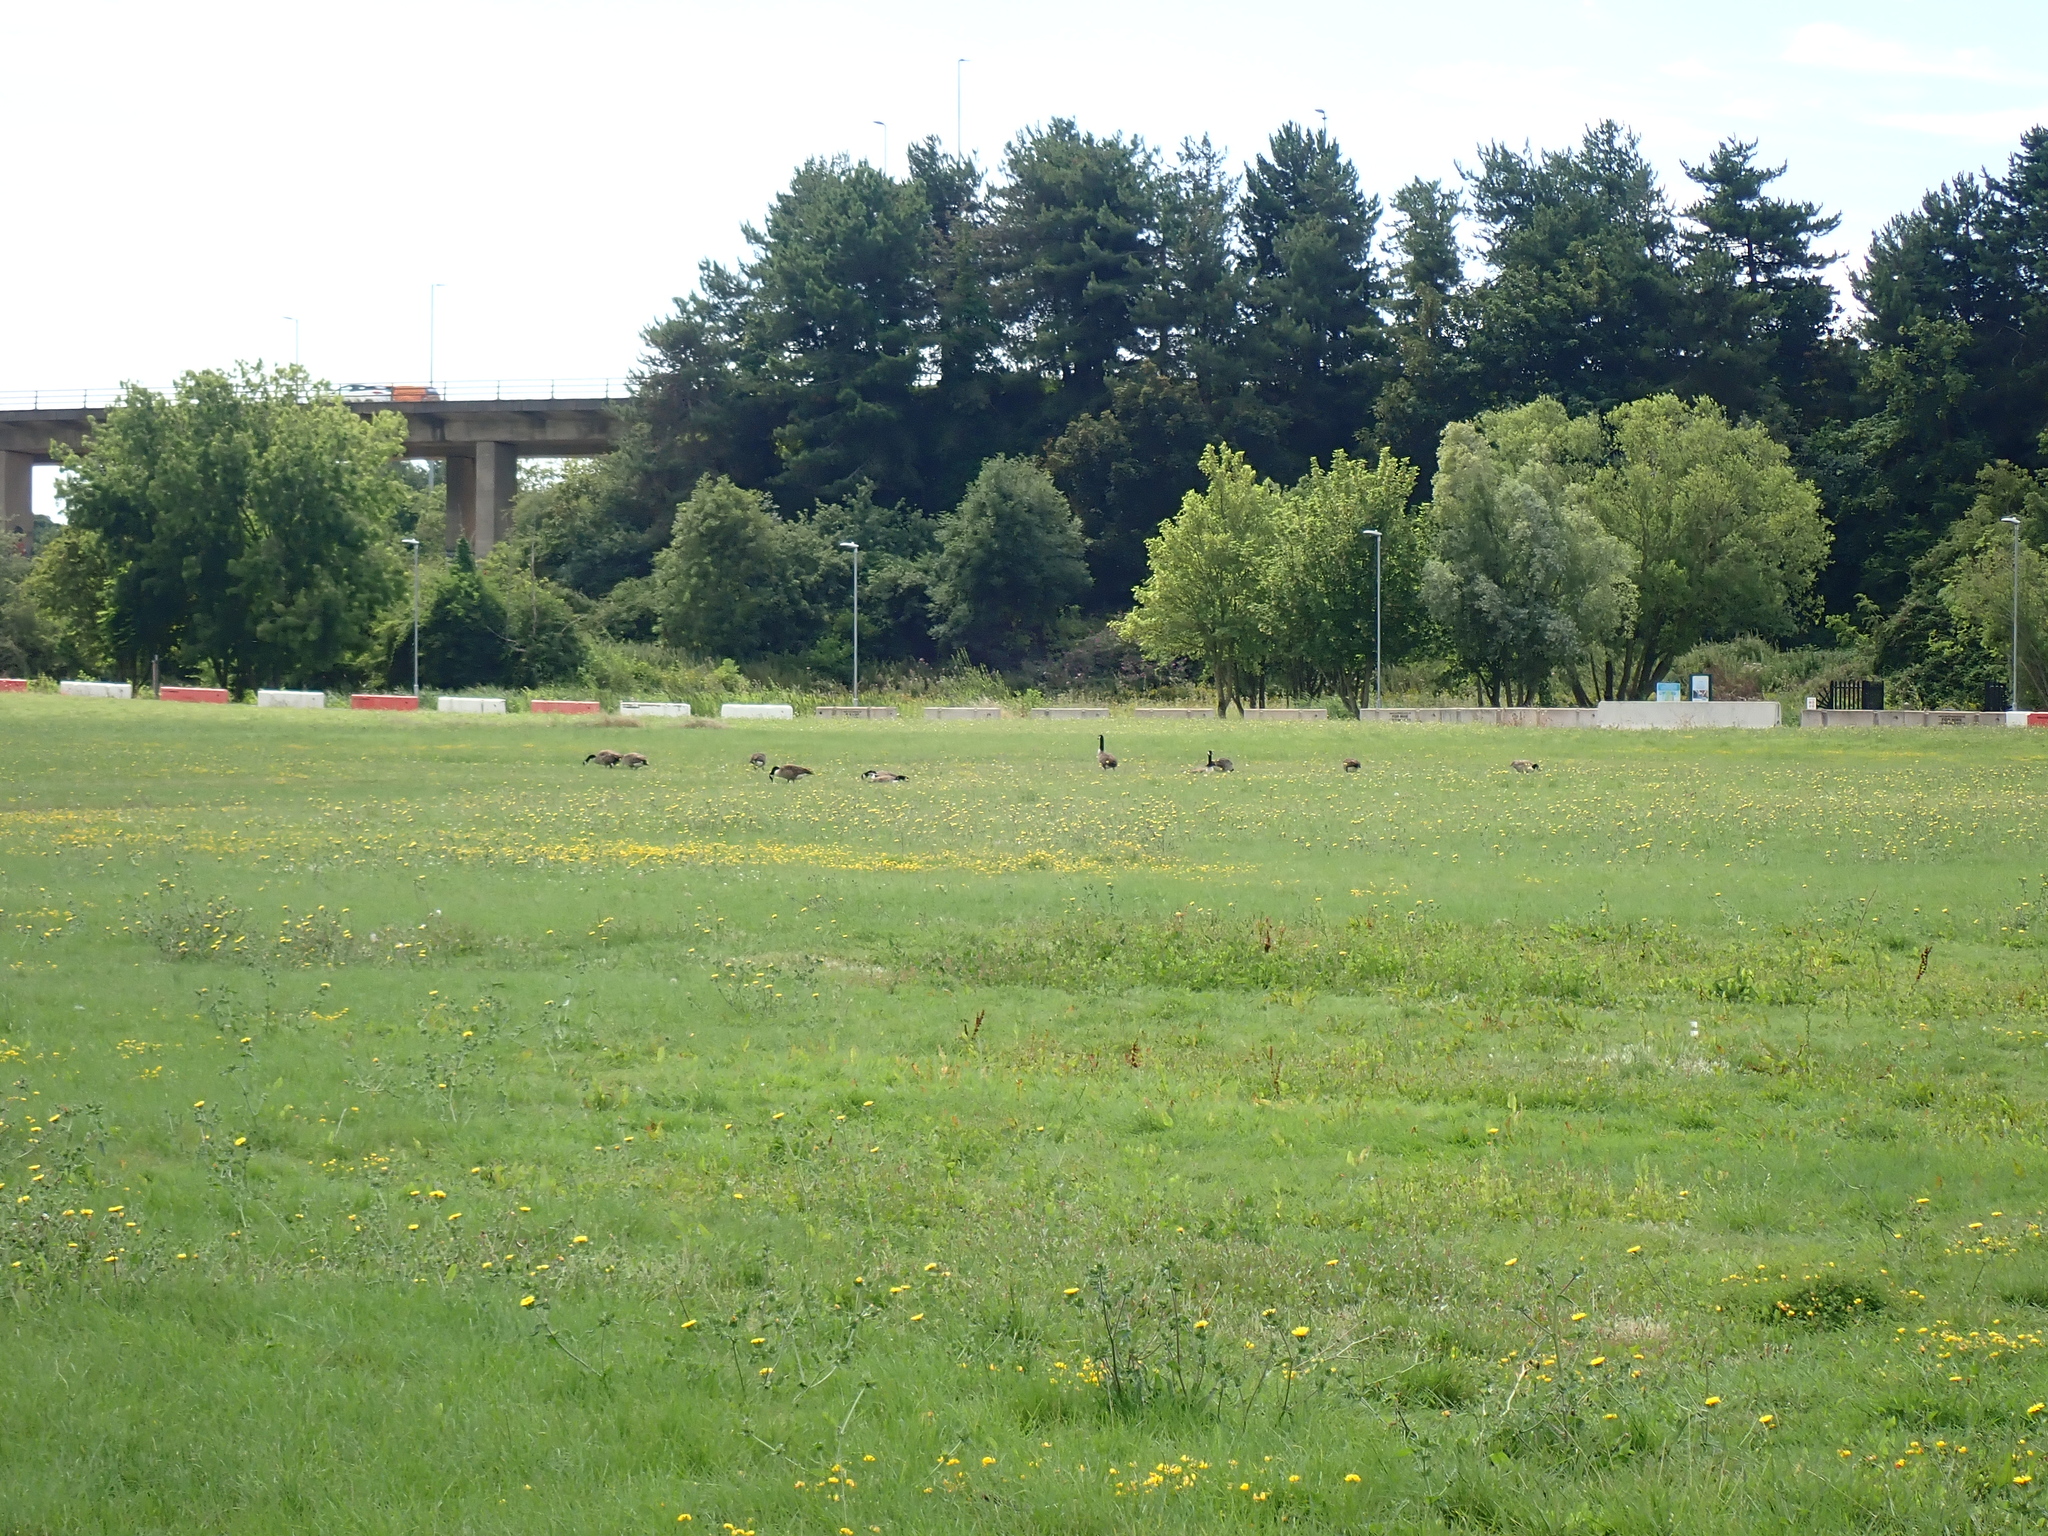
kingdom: Animalia
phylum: Chordata
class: Aves
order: Anseriformes
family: Anatidae
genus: Branta
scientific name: Branta canadensis
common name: Canada goose
